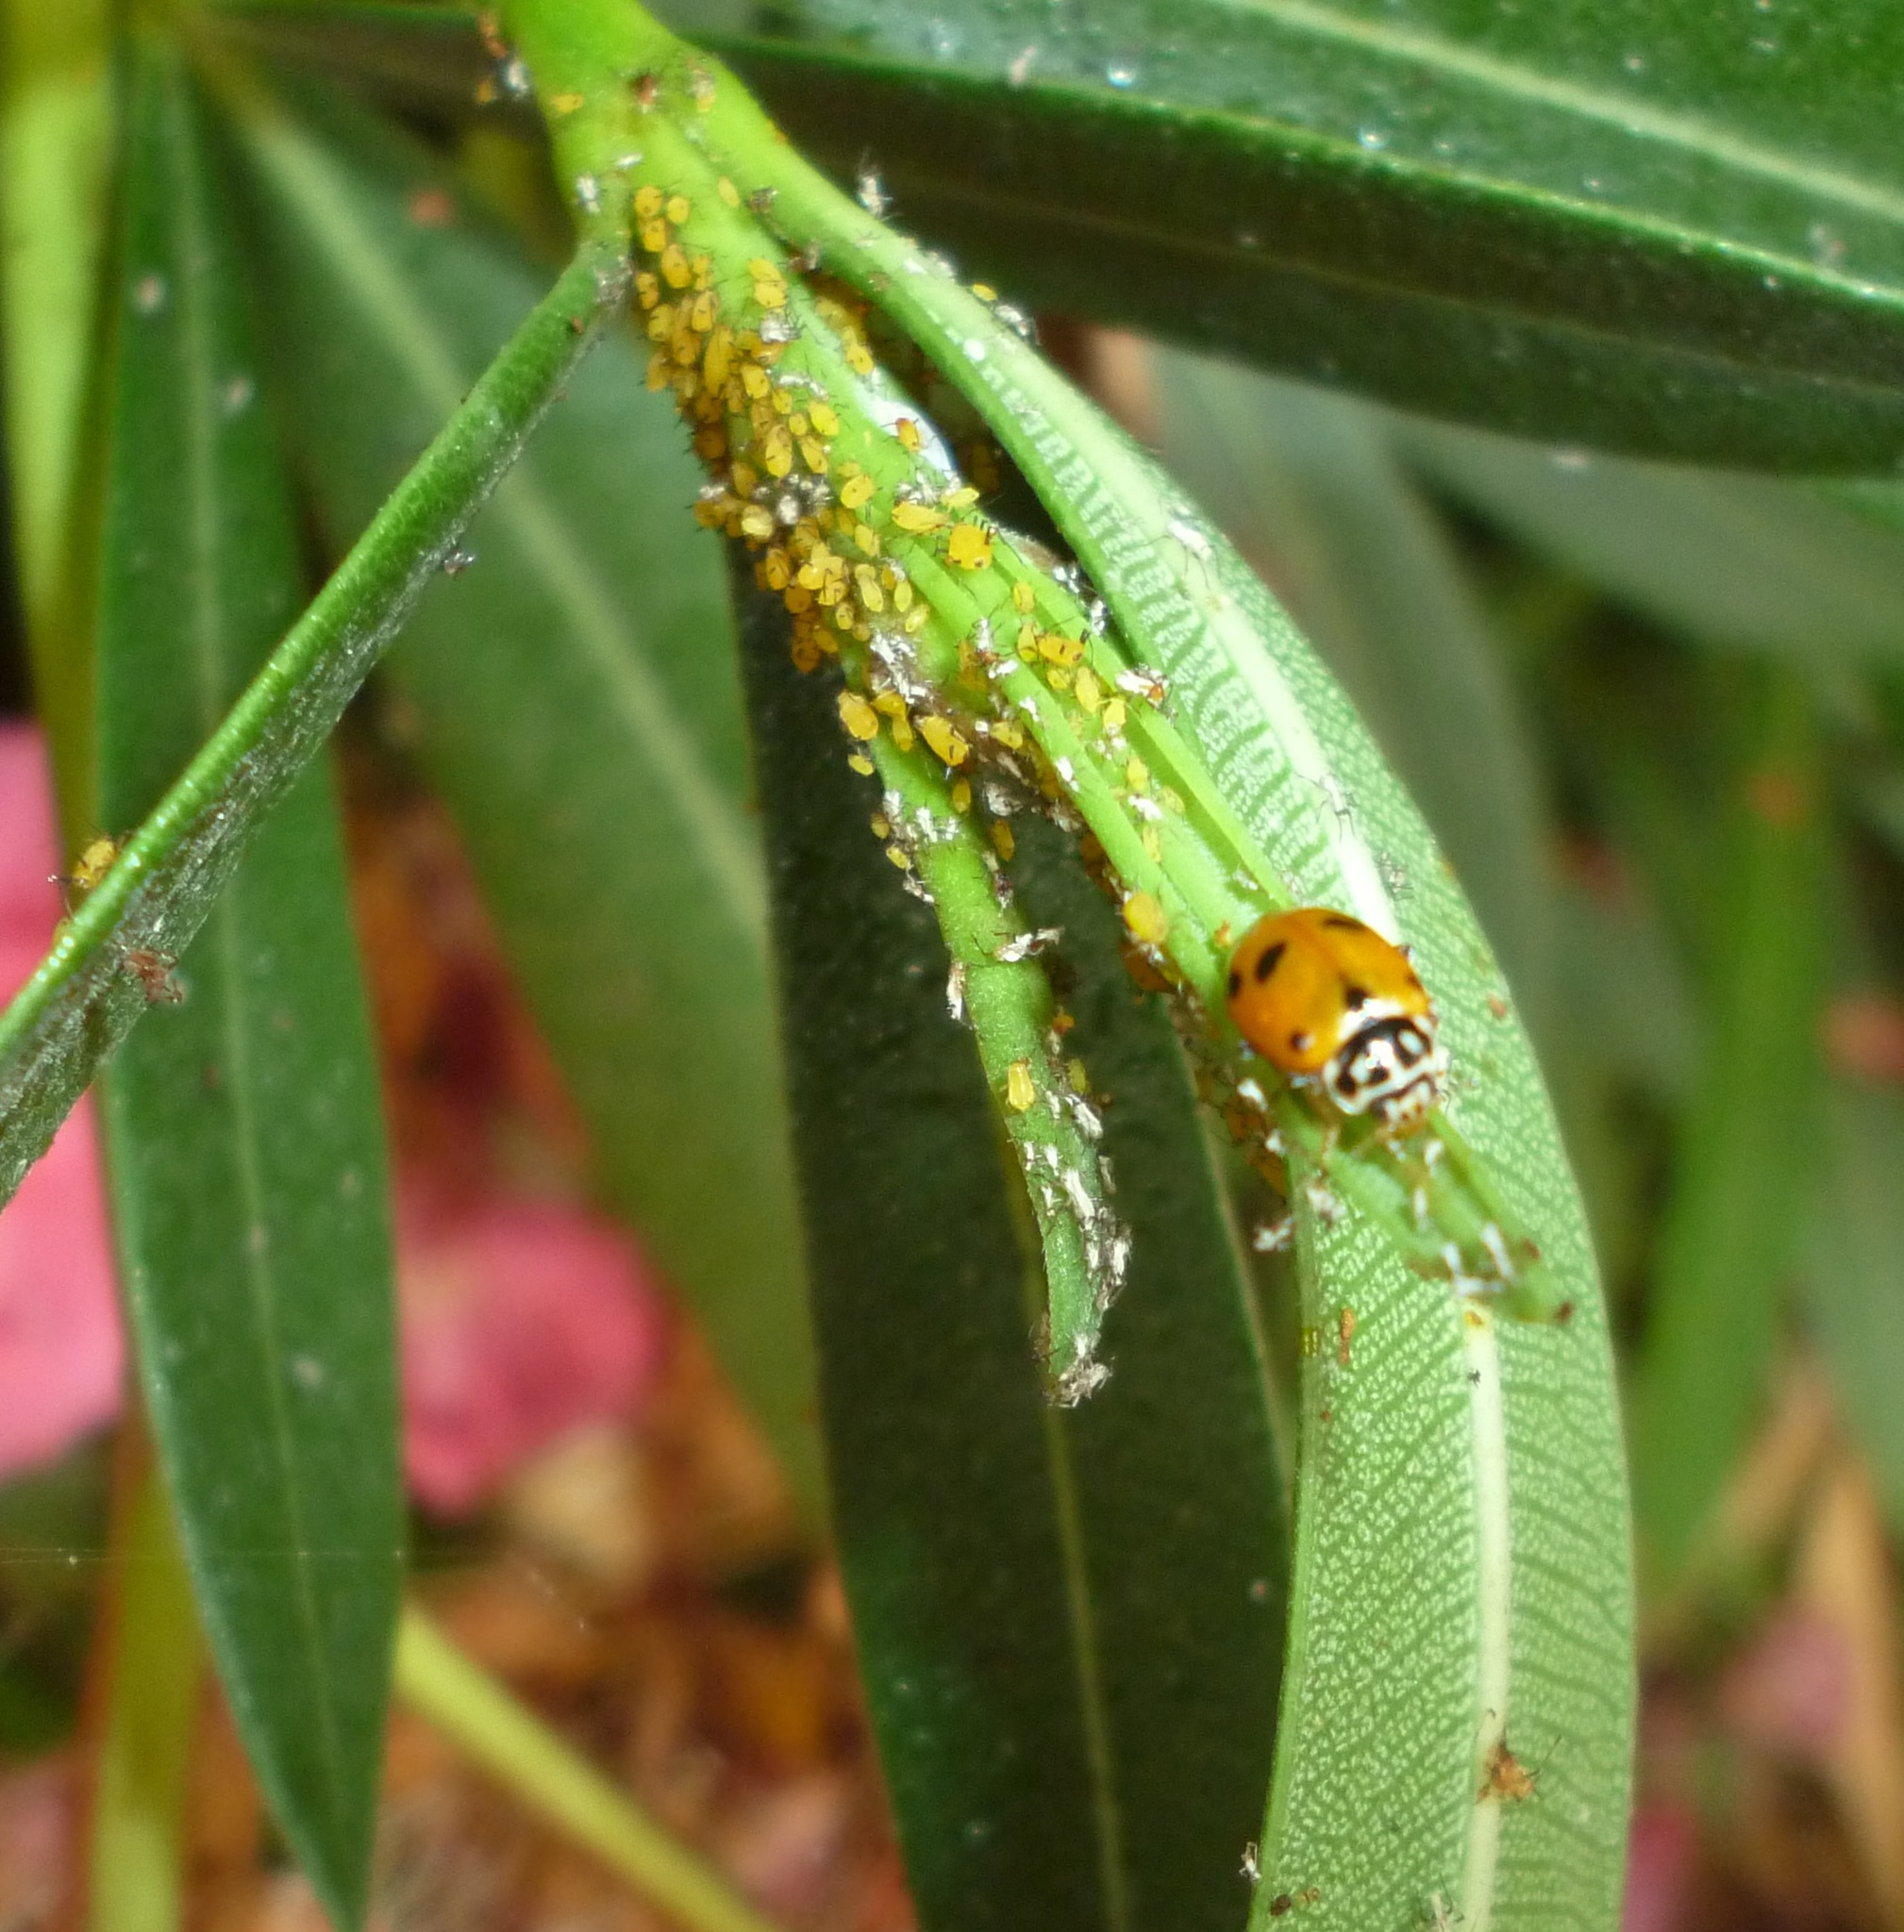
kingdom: Animalia
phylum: Arthropoda
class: Insecta
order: Hemiptera
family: Aphididae
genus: Aphis
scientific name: Aphis nerii
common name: Oleander aphid
